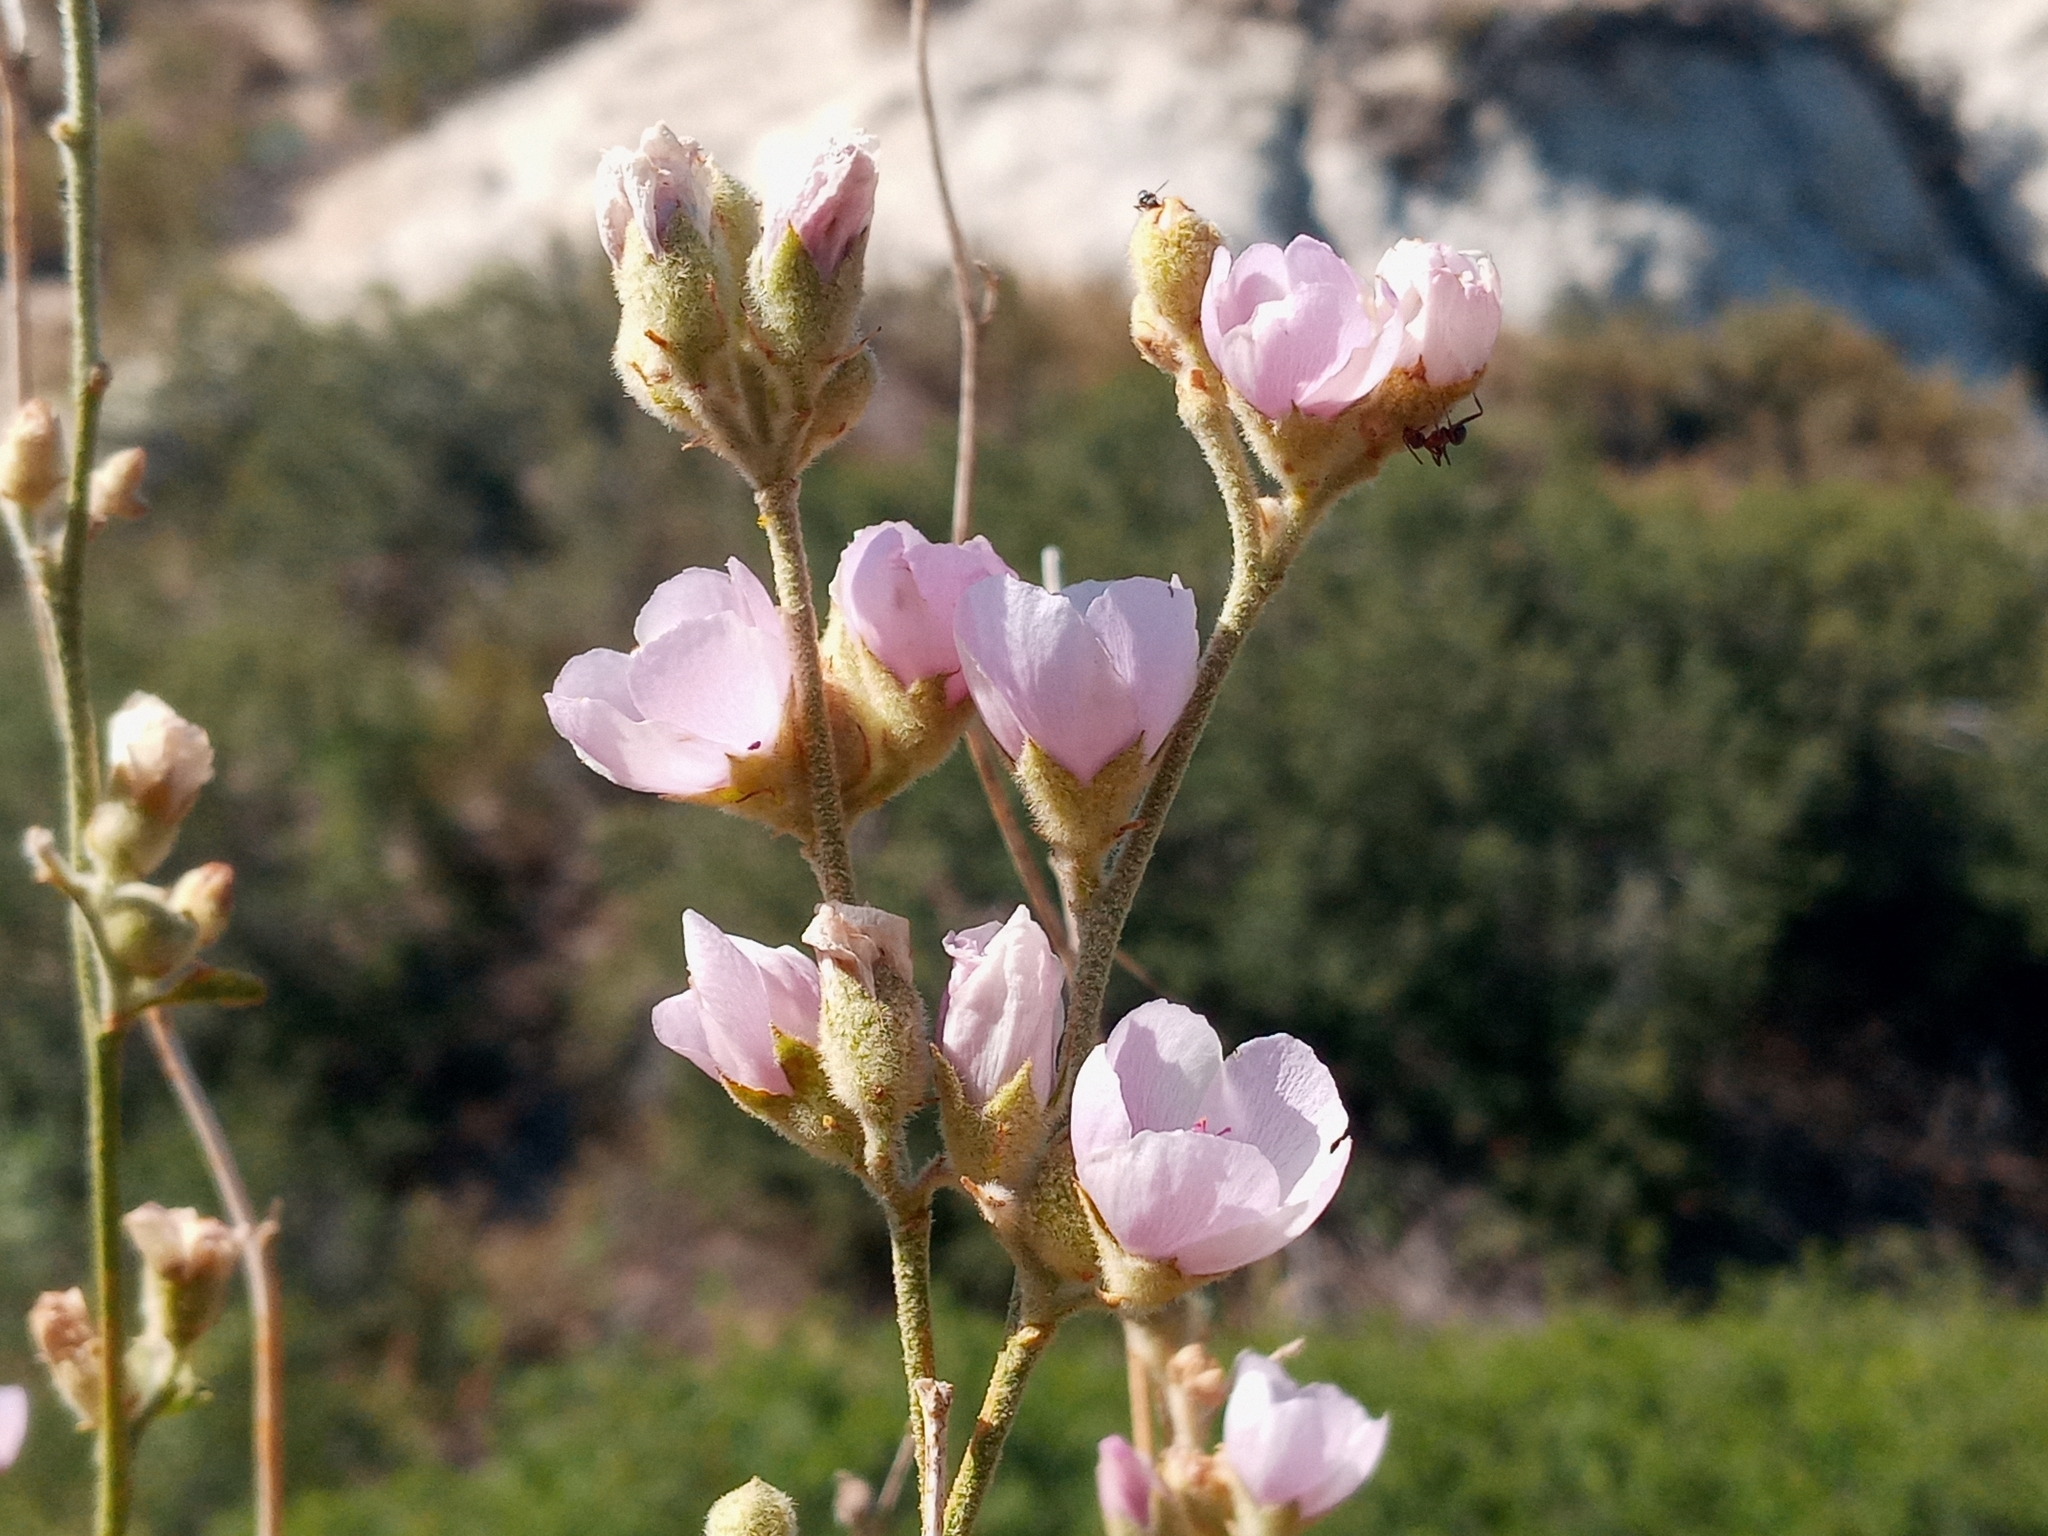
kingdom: Plantae
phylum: Tracheophyta
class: Magnoliopsida
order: Malvales
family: Malvaceae
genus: Malacothamnus
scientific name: Malacothamnus fremontii
